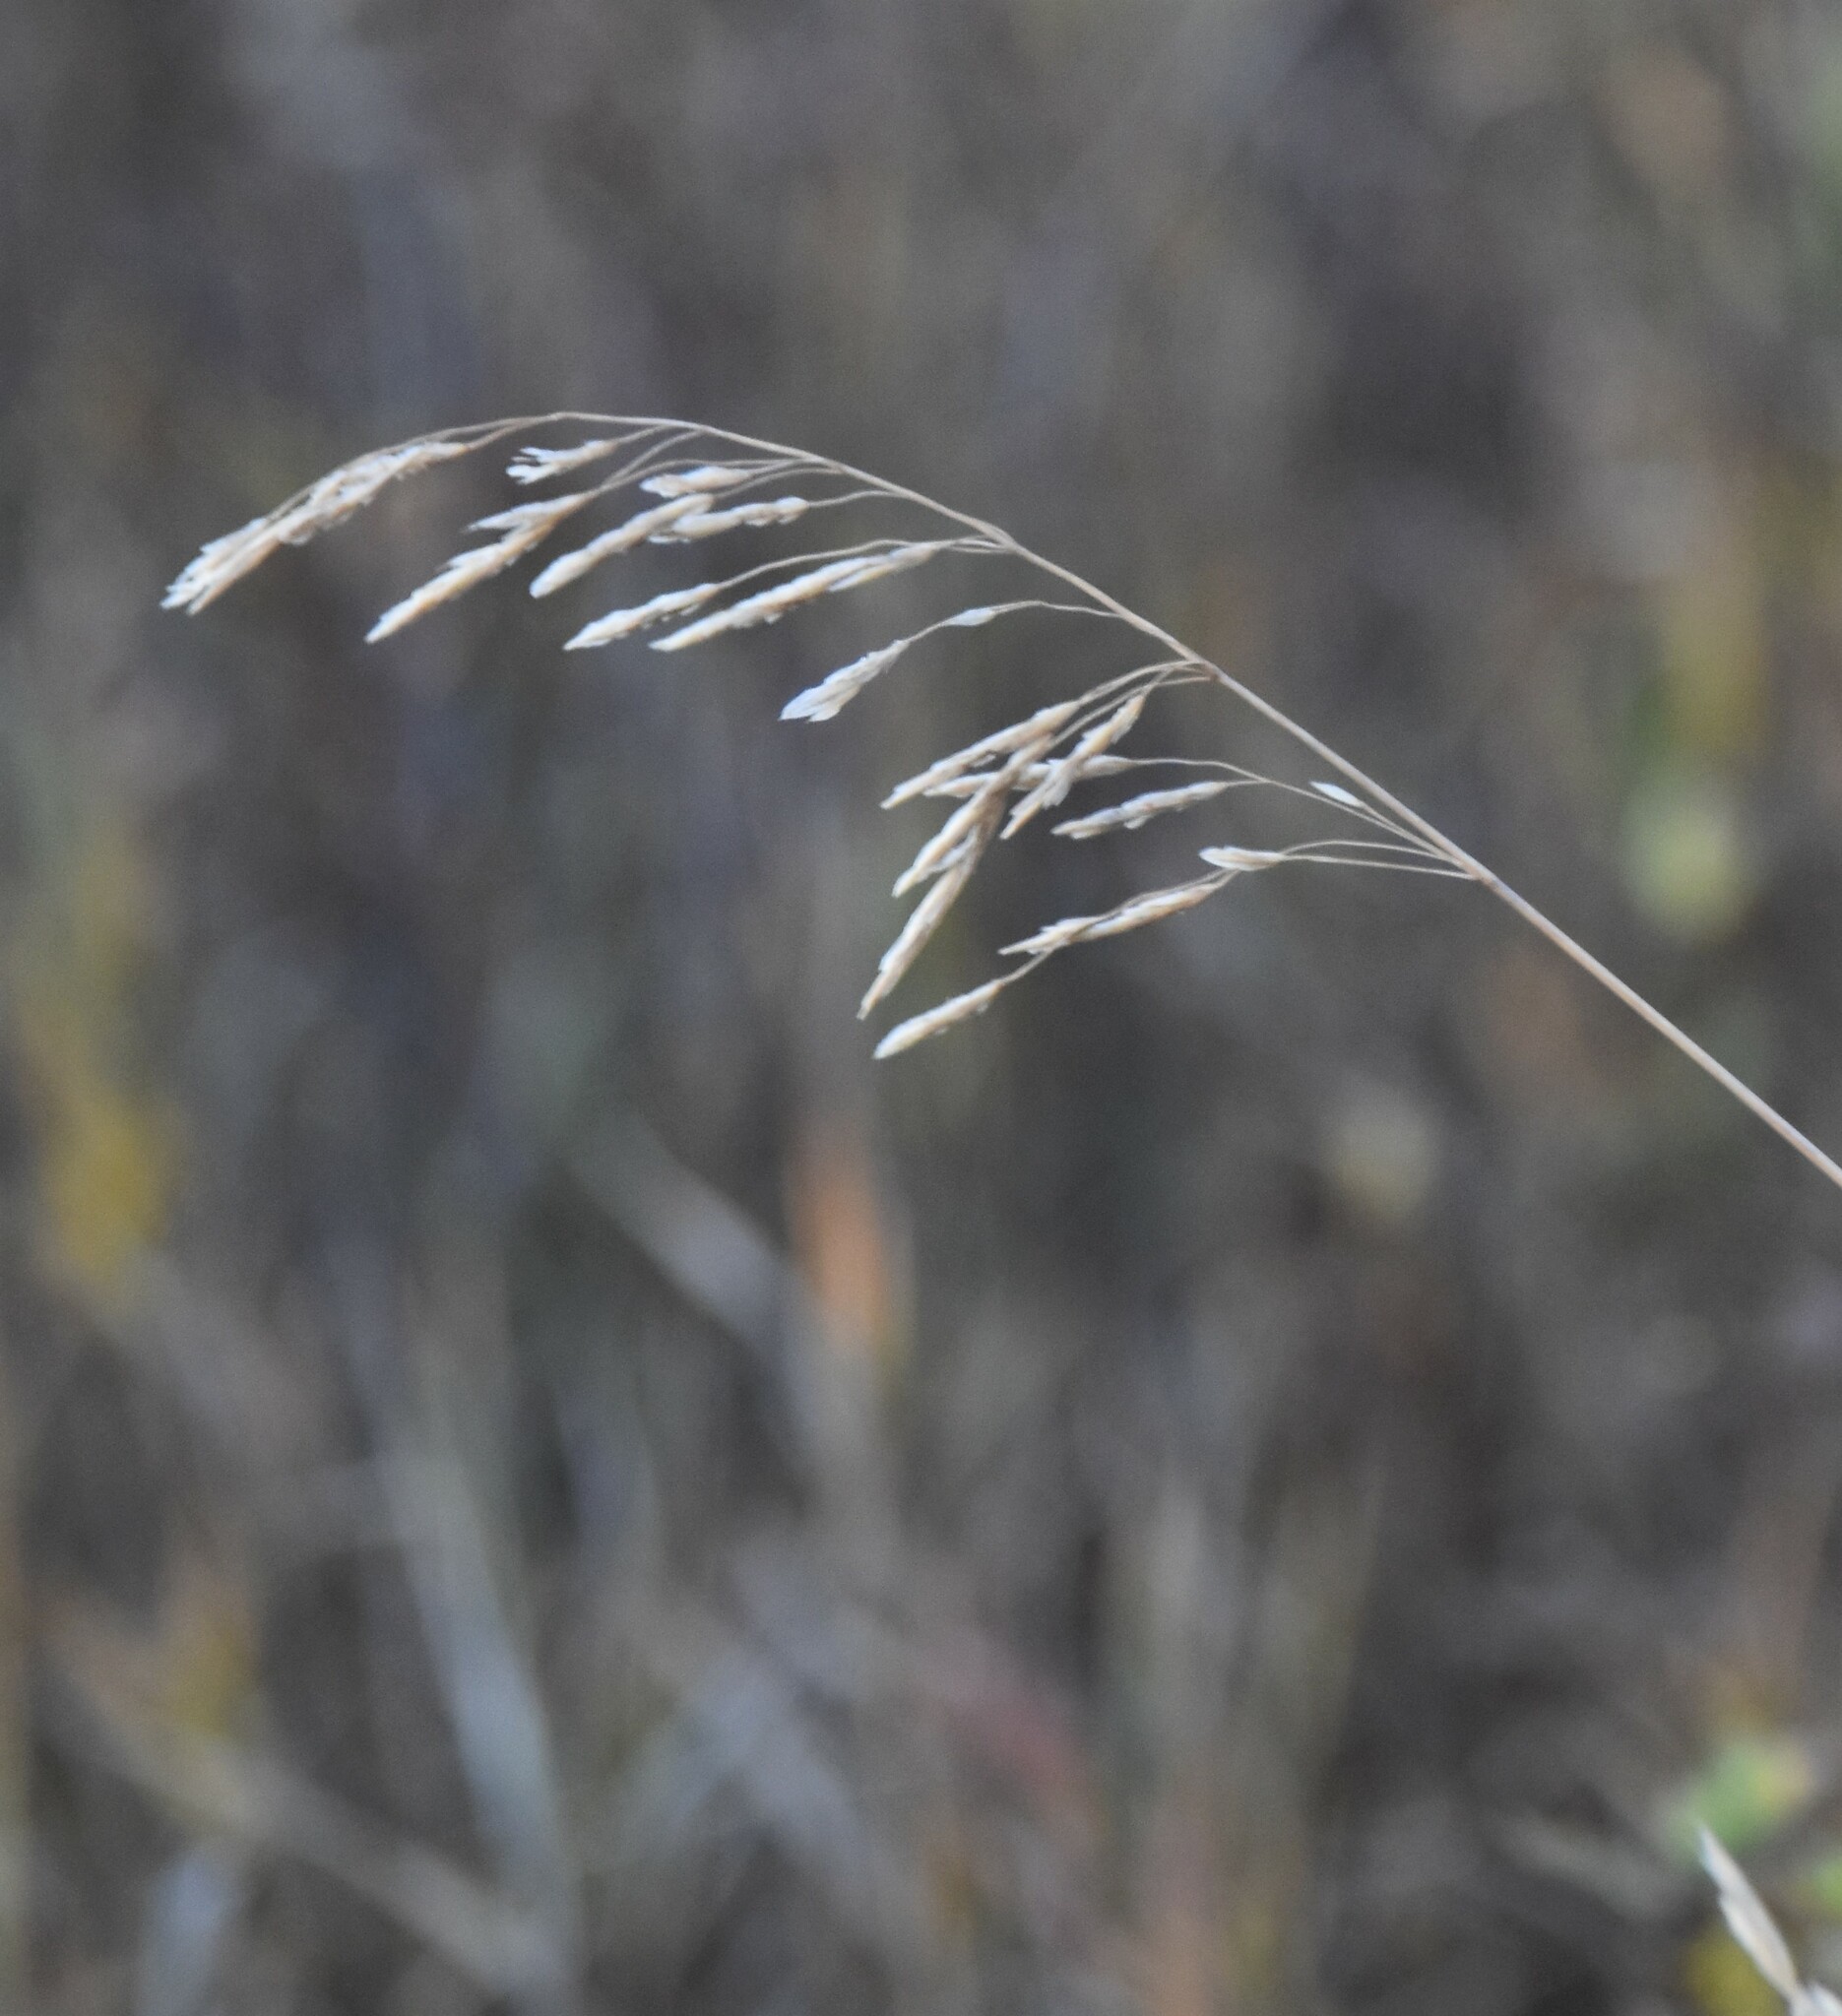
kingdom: Plantae
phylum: Tracheophyta
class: Liliopsida
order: Poales
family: Poaceae
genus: Bromus
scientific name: Bromus inermis
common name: Smooth brome
